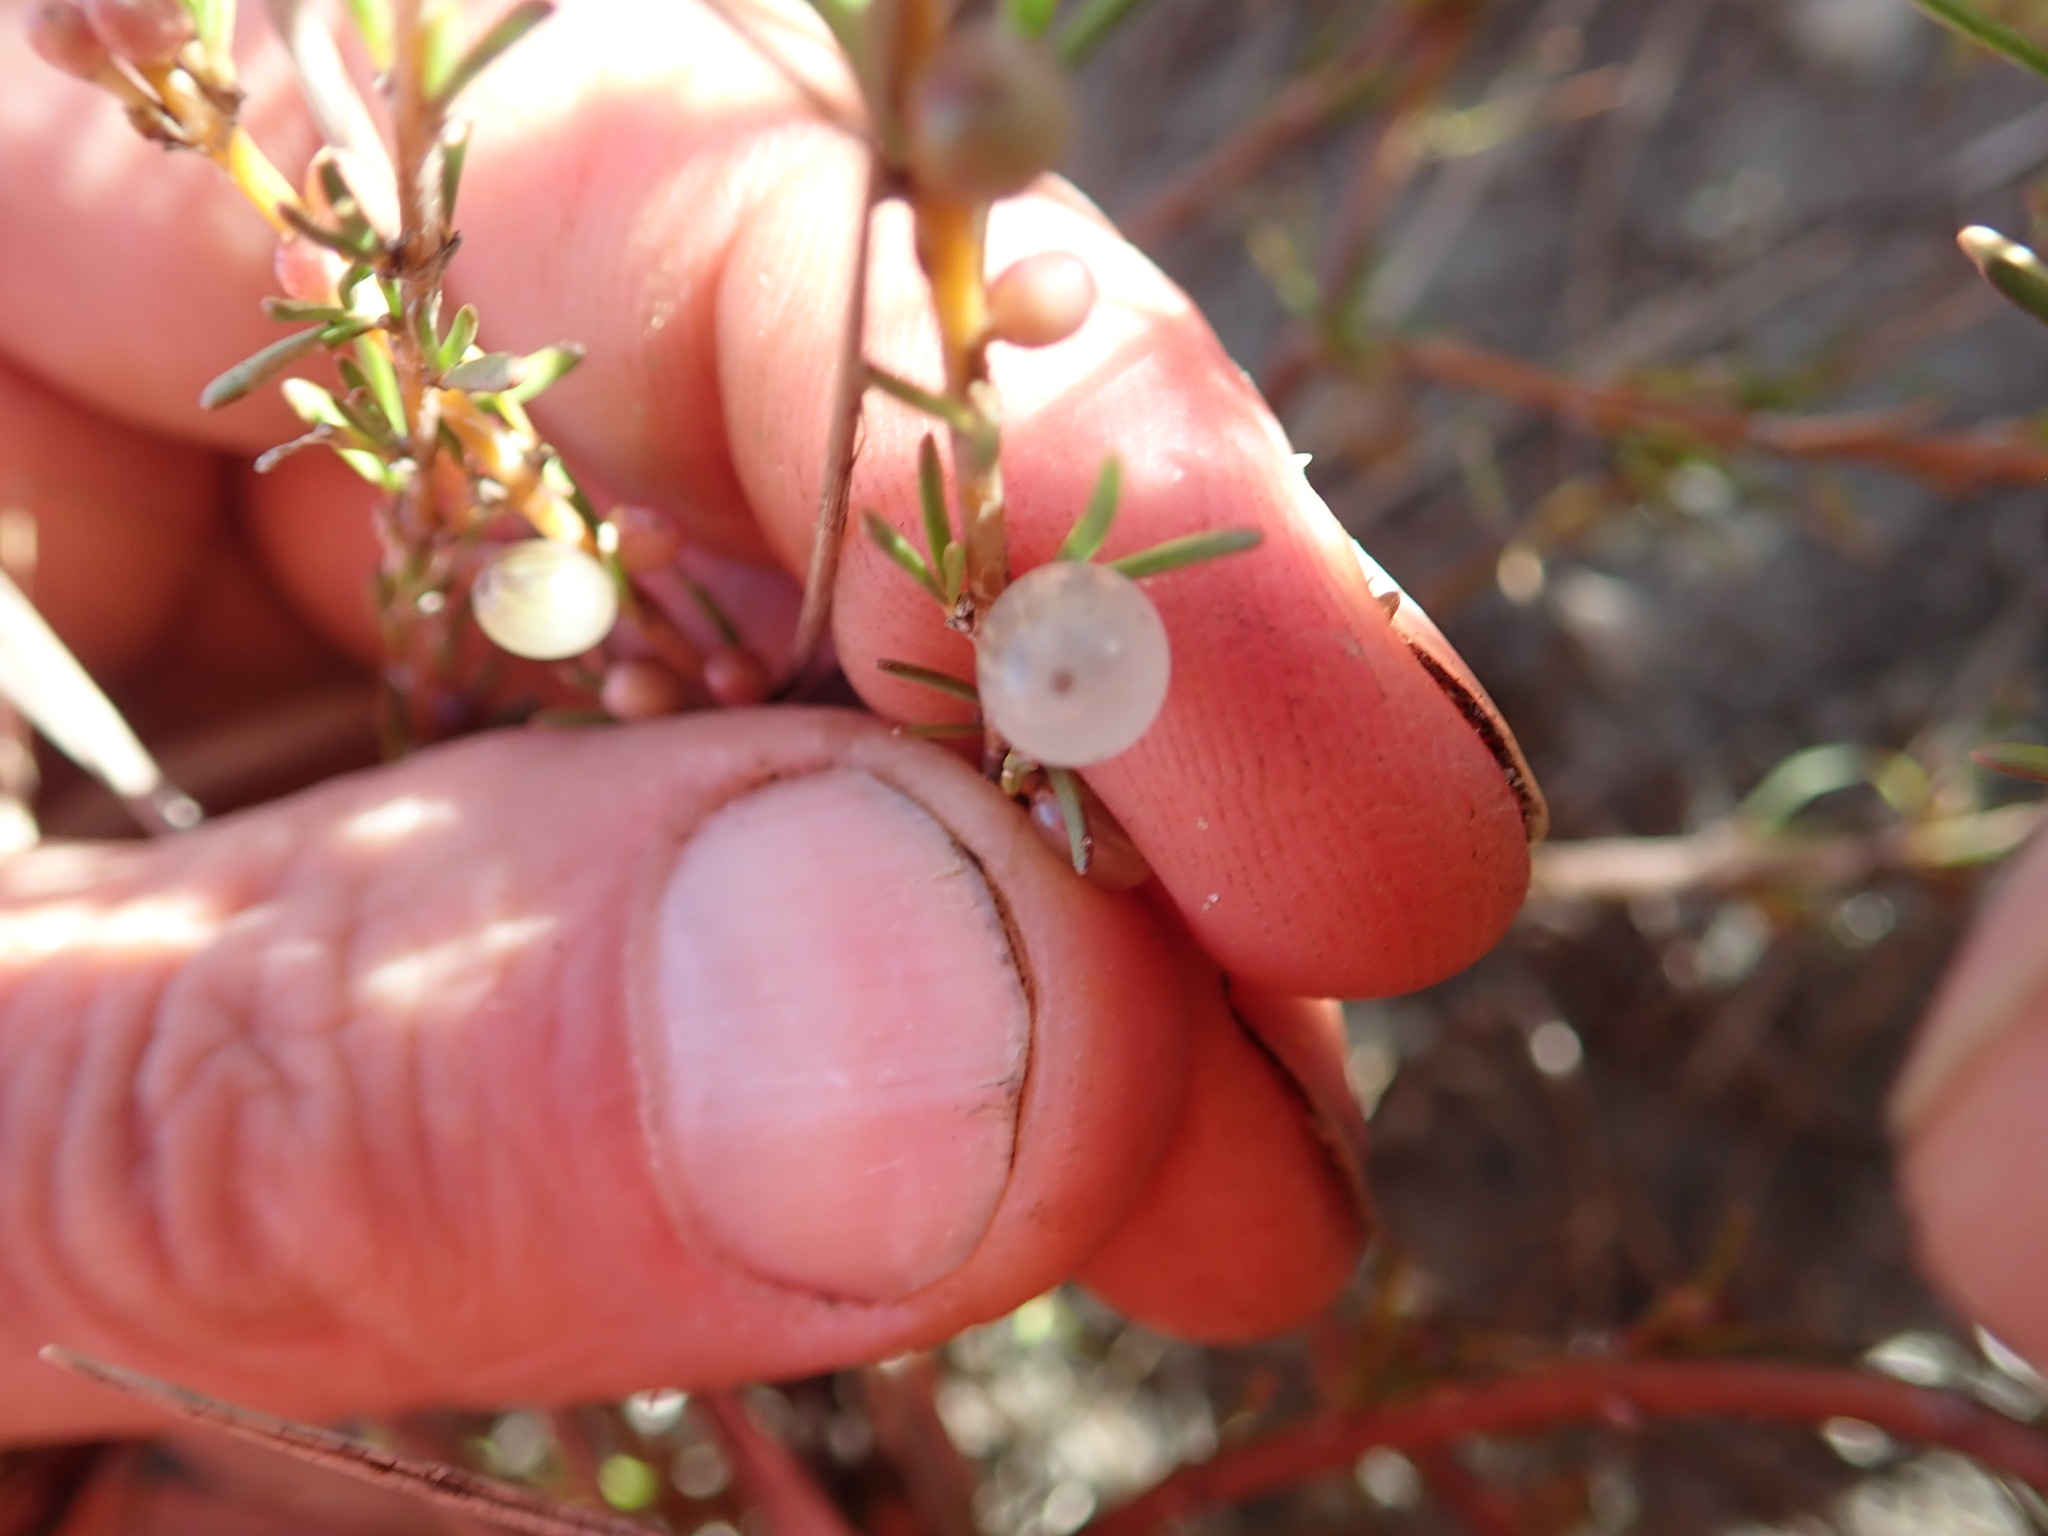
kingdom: Plantae
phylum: Tracheophyta
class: Magnoliopsida
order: Gentianales
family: Rubiaceae
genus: Coprosma
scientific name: Coprosma acerosa
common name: Sand coprosma
